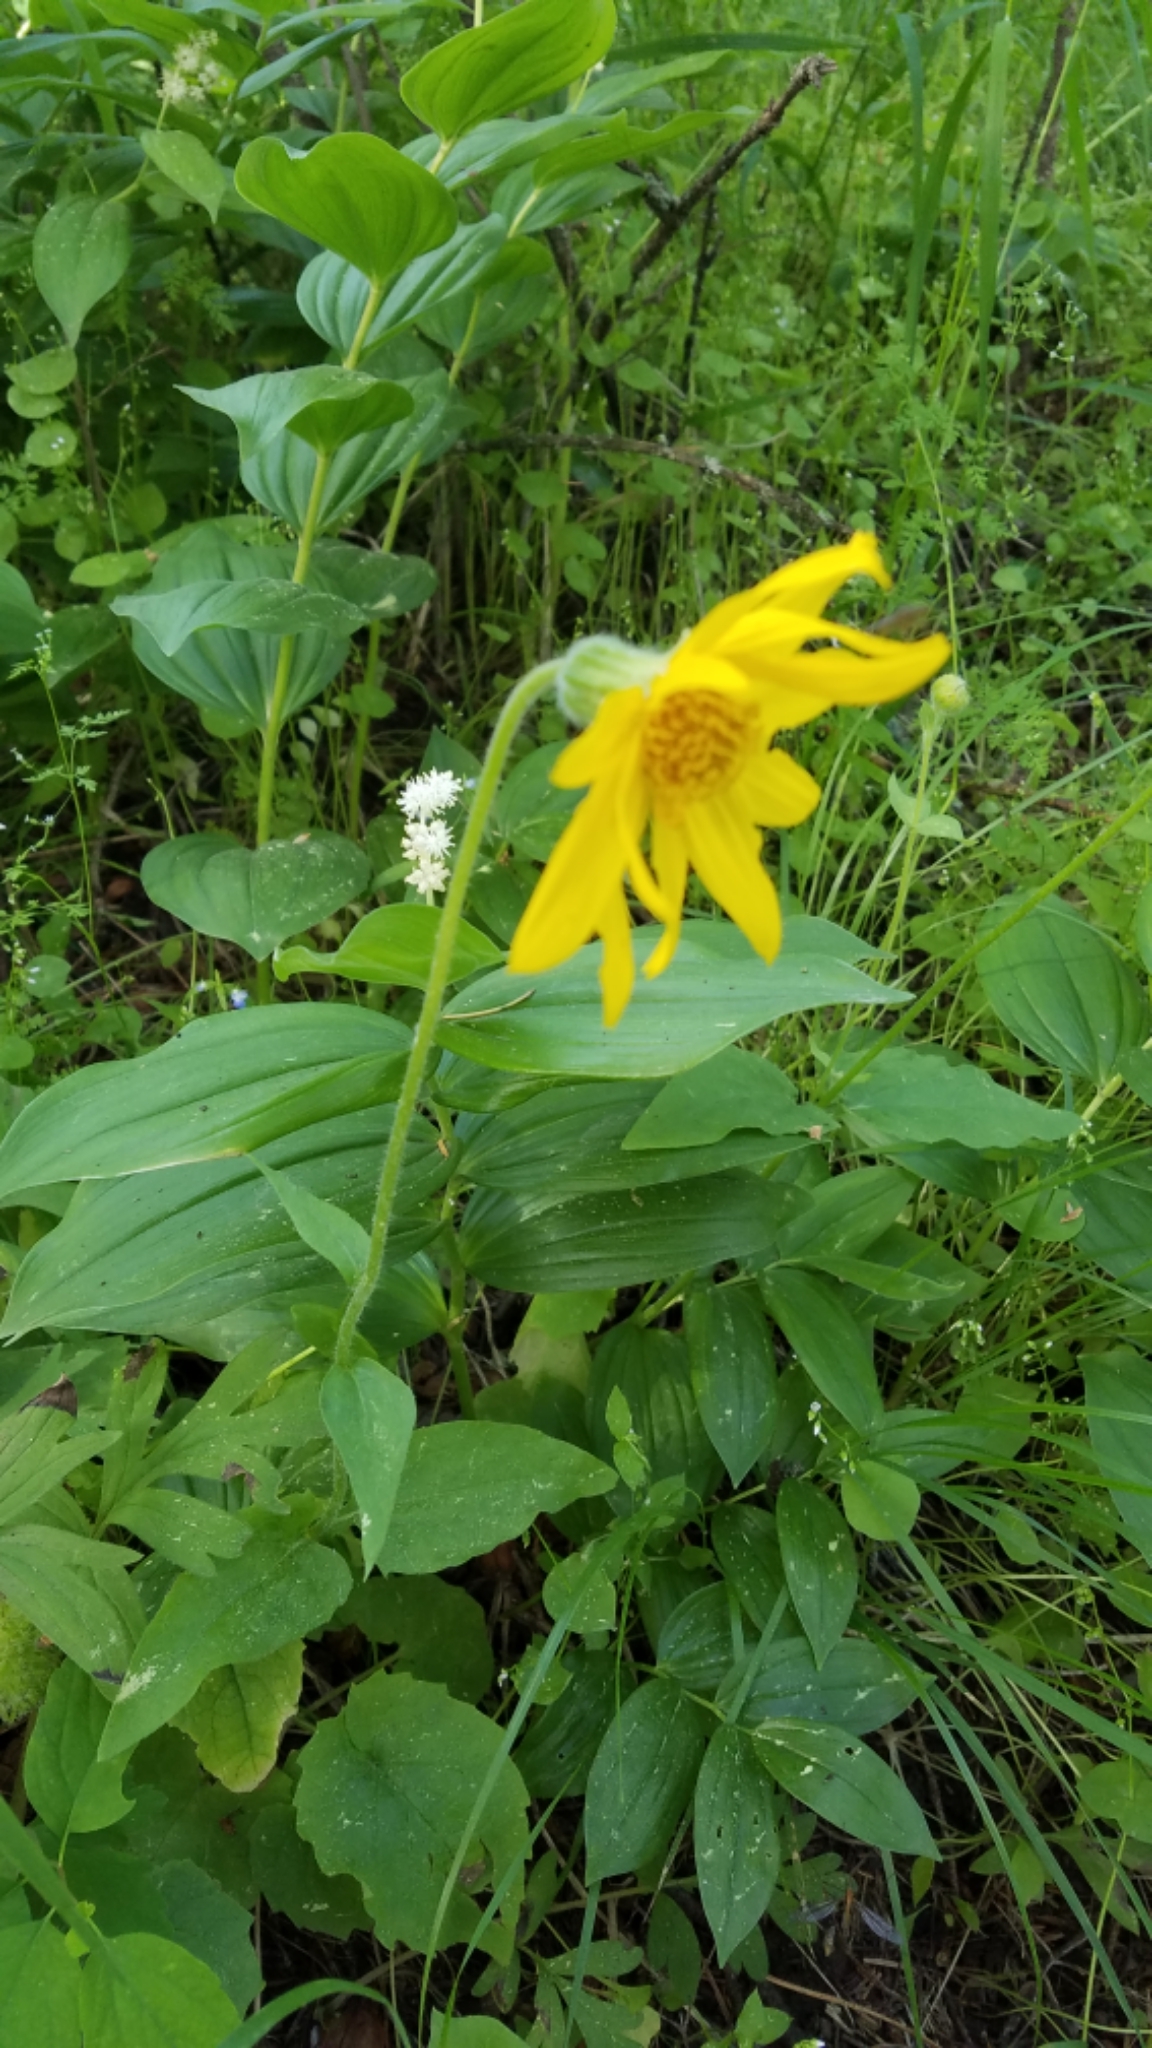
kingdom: Plantae
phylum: Tracheophyta
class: Magnoliopsida
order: Asterales
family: Asteraceae
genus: Arnica
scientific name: Arnica cordifolia
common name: Heart-leaf arnica
